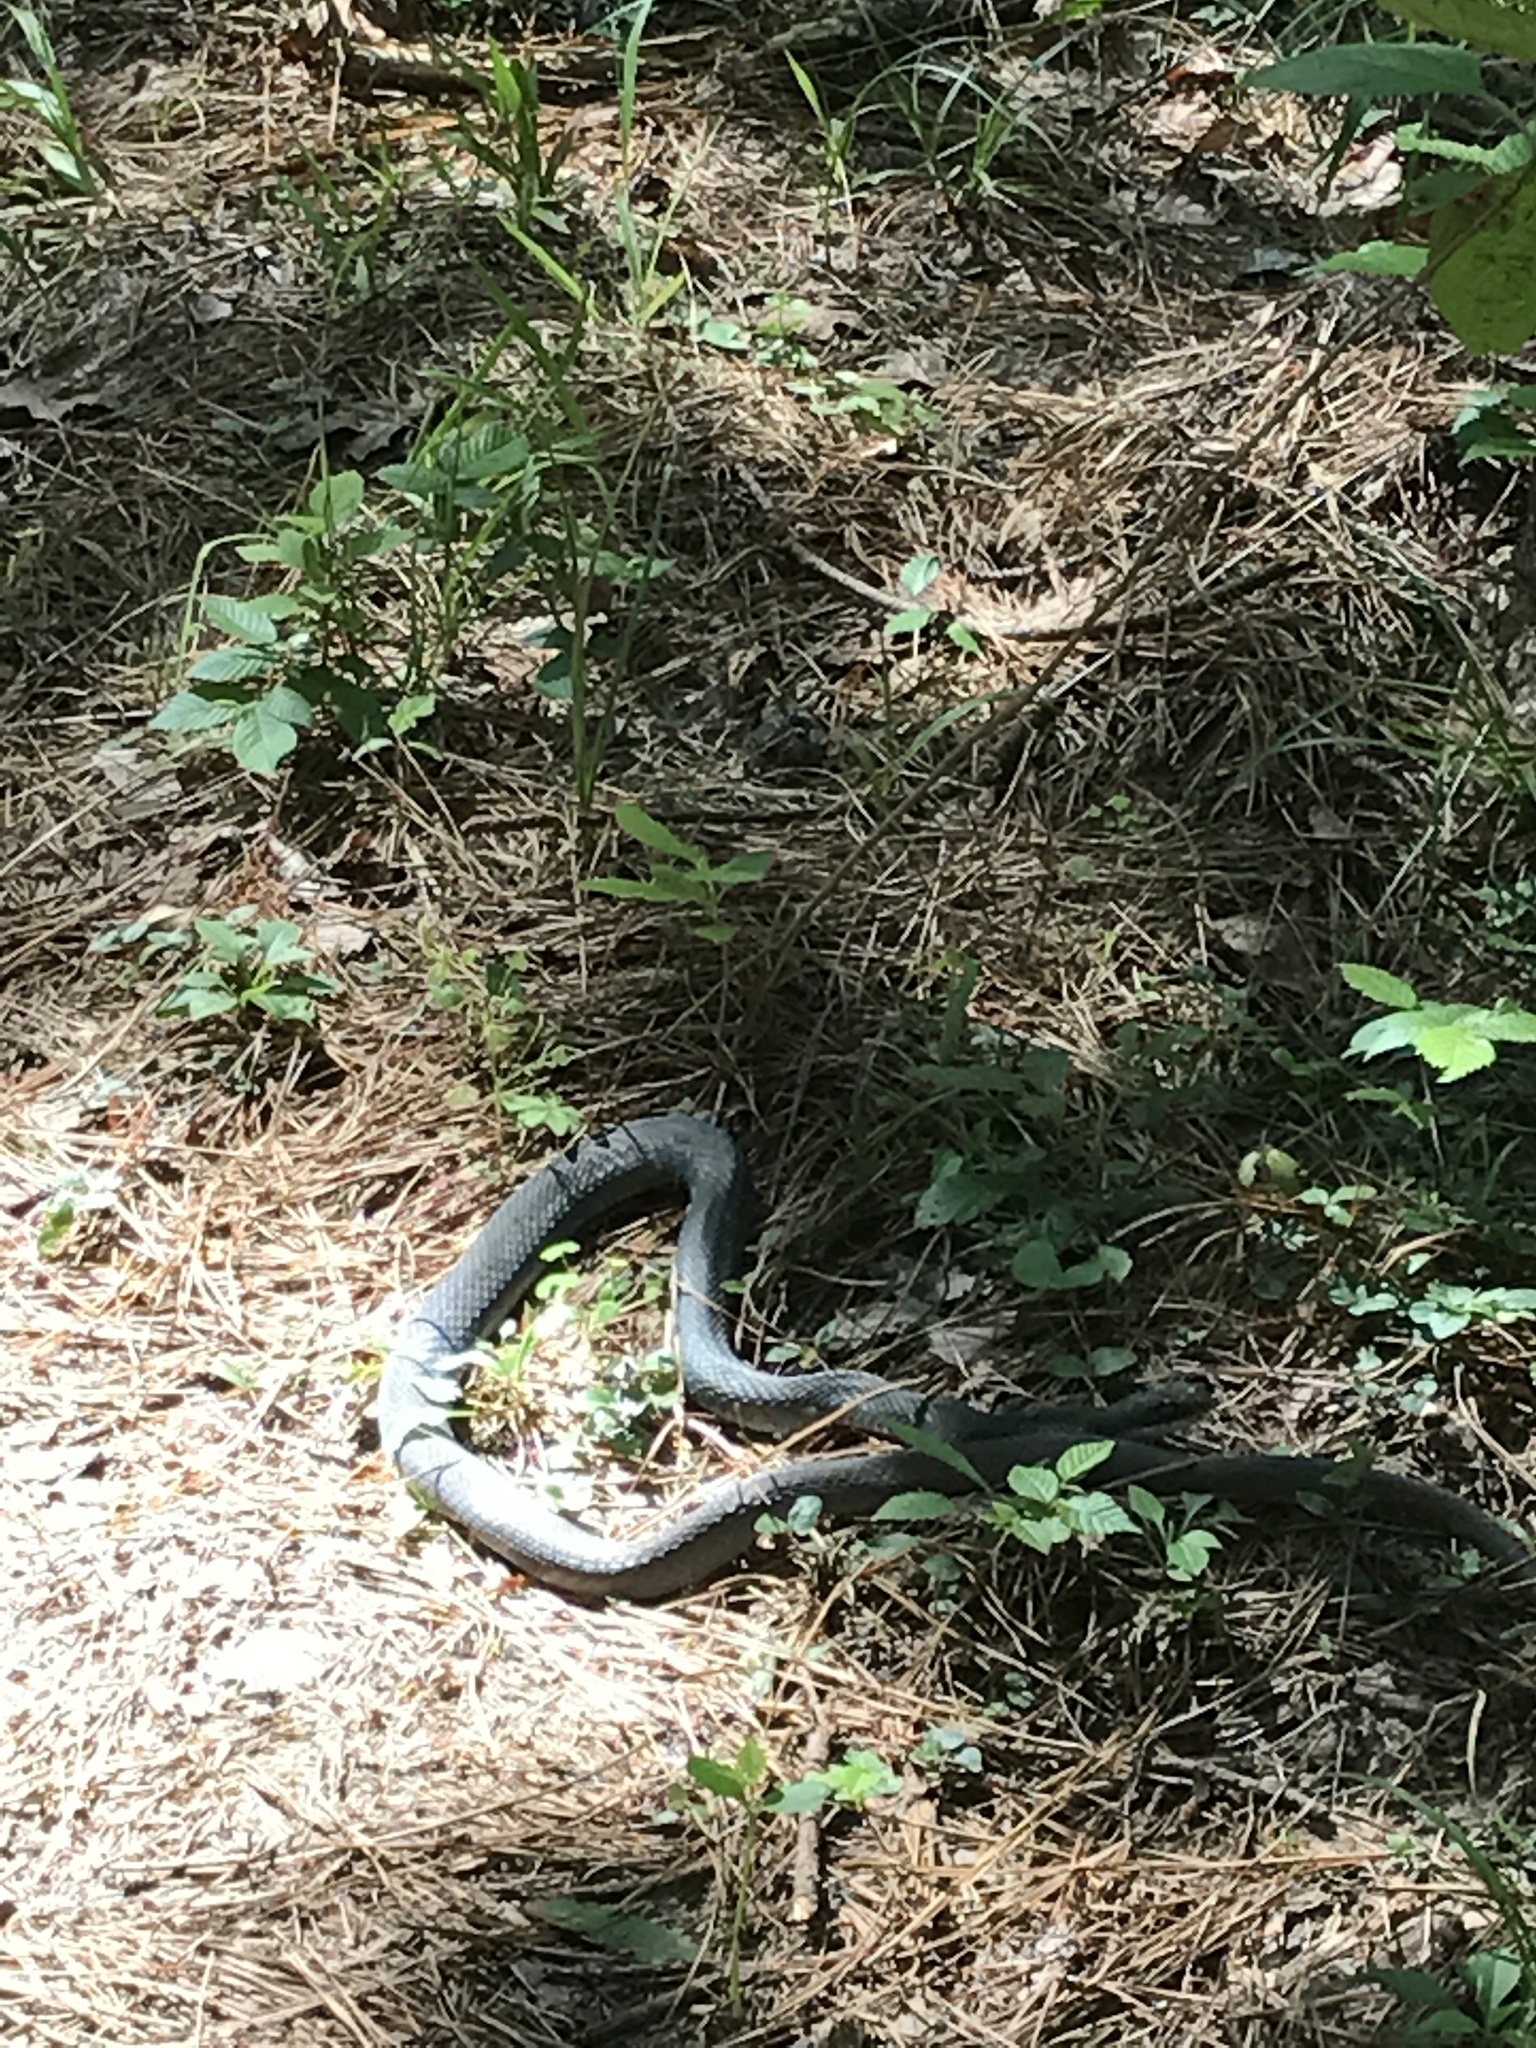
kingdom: Animalia
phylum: Chordata
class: Squamata
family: Colubridae
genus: Nerodia
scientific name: Nerodia erythrogaster
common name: Plainbelly water snake
